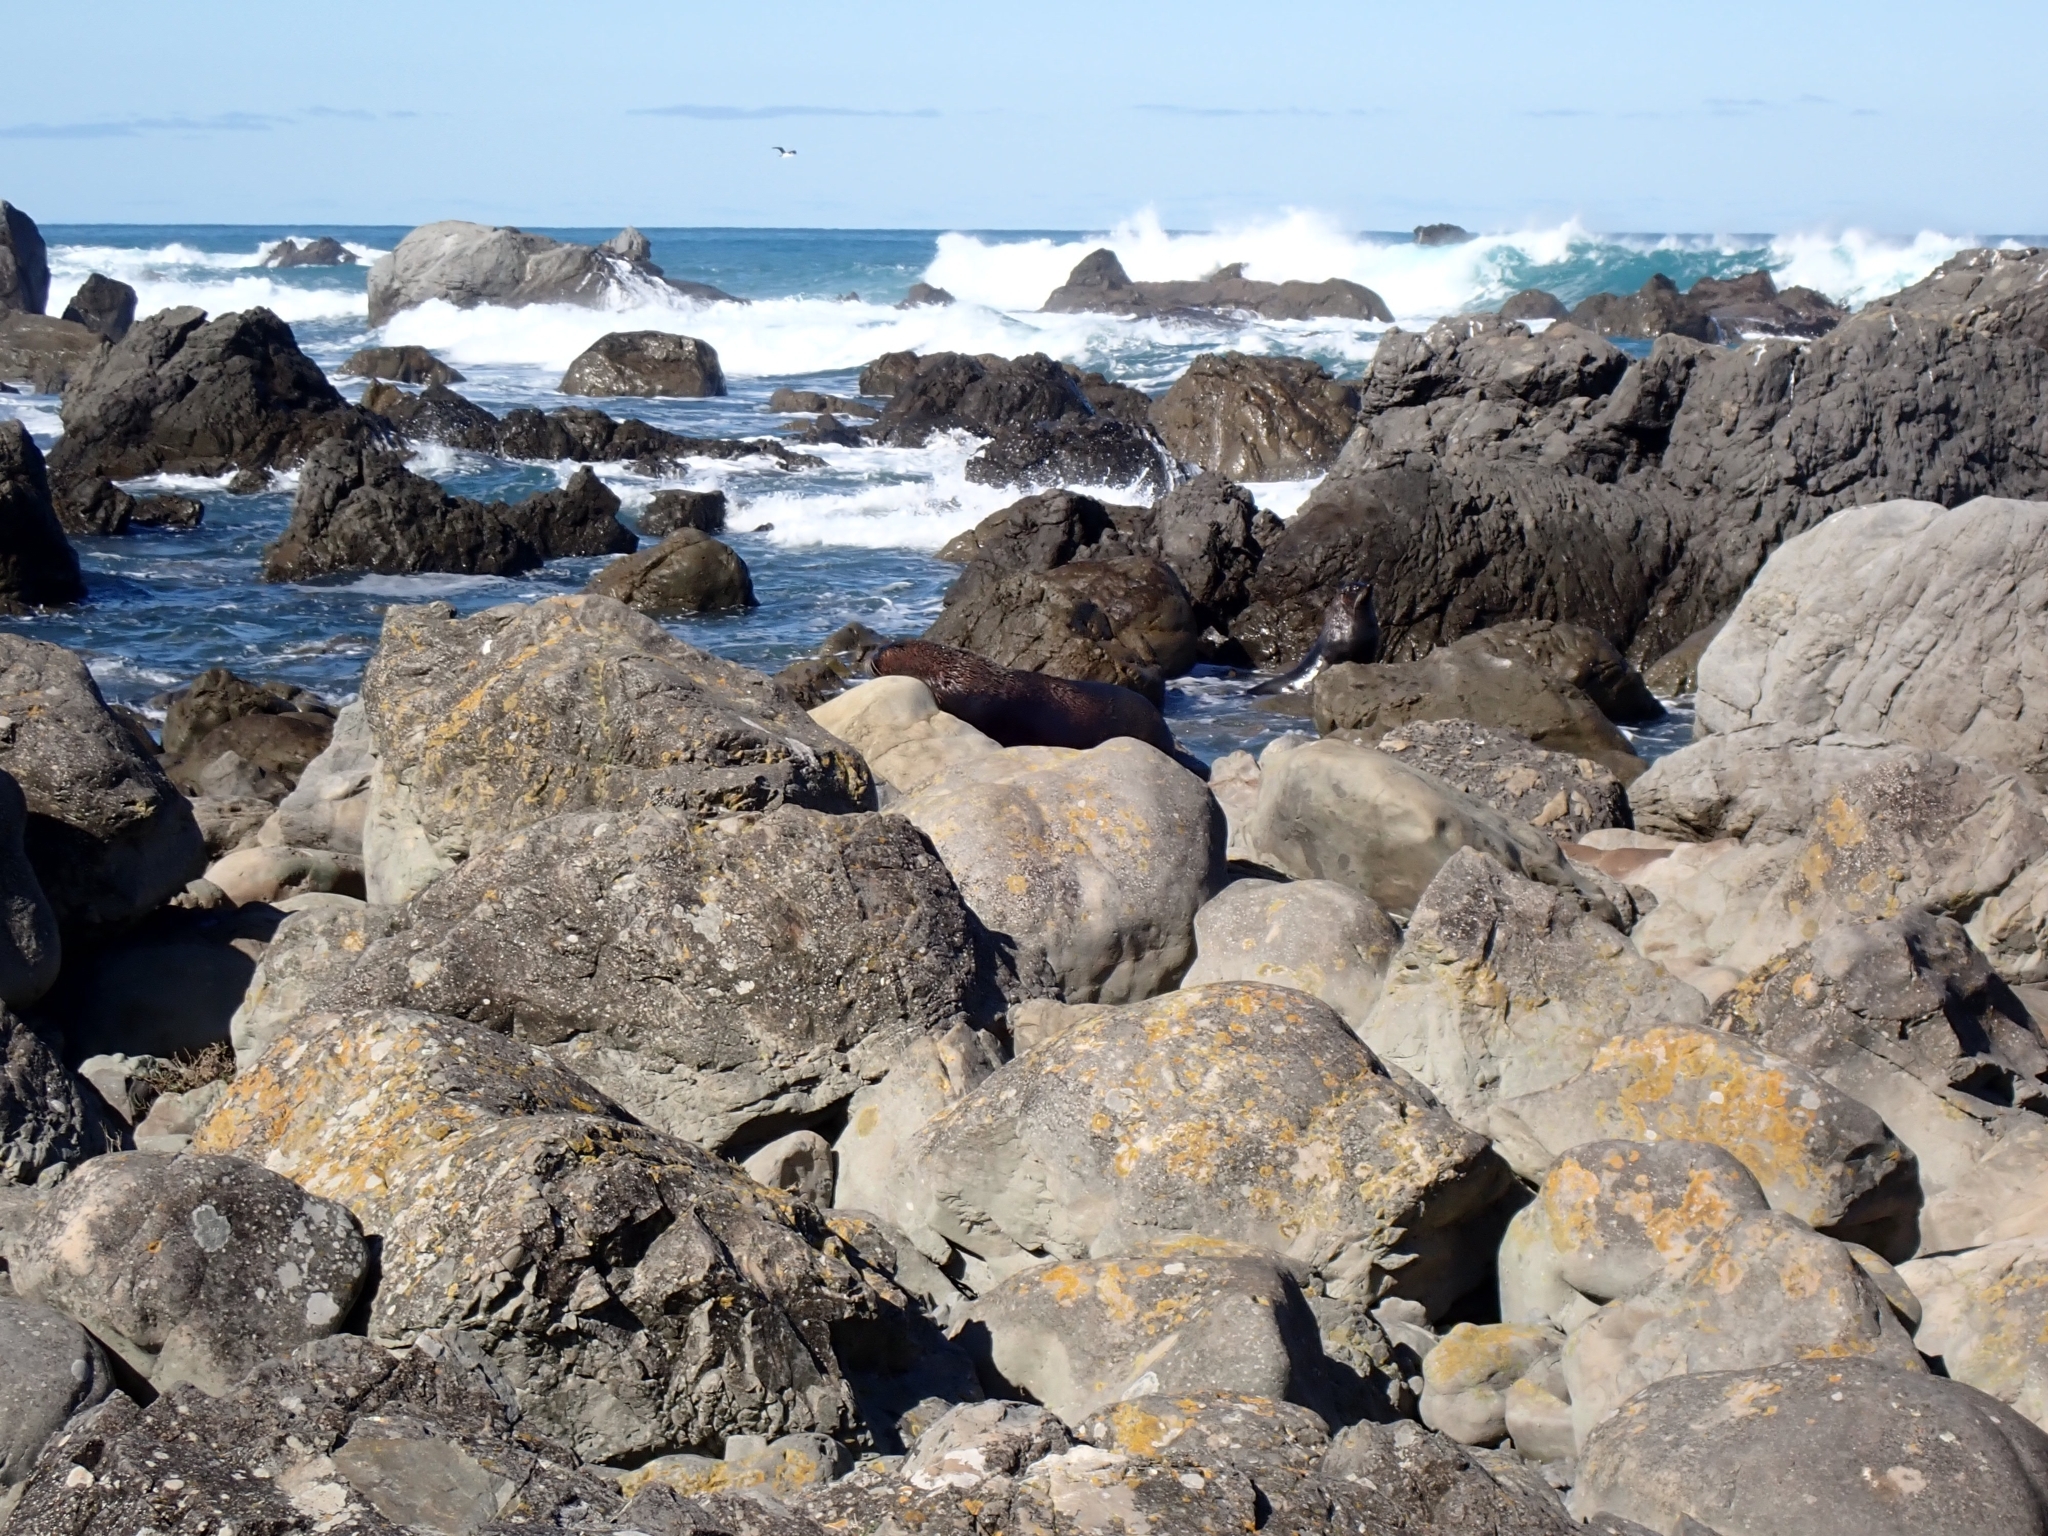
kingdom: Animalia
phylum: Chordata
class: Mammalia
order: Carnivora
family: Otariidae
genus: Arctocephalus
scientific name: Arctocephalus forsteri
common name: New zealand fur seal
